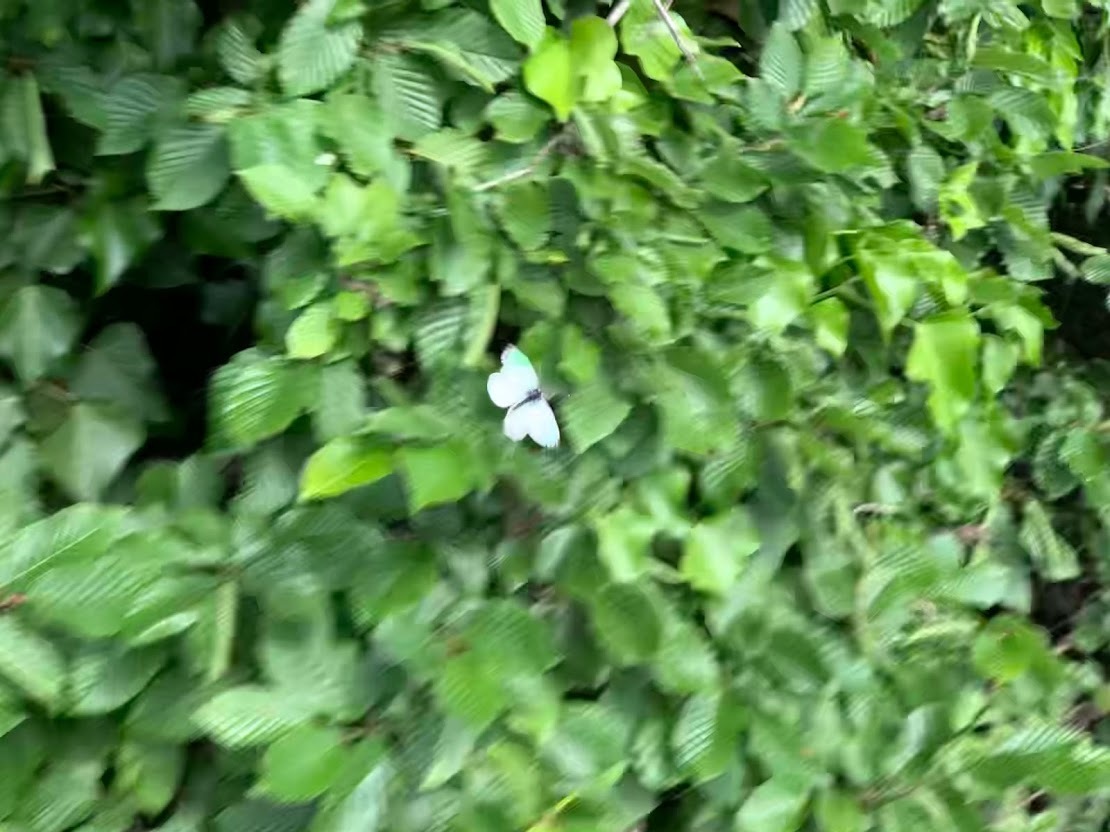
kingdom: Animalia
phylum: Arthropoda
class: Insecta
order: Lepidoptera
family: Pieridae
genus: Pieris
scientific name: Pieris napi
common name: Green-veined white
